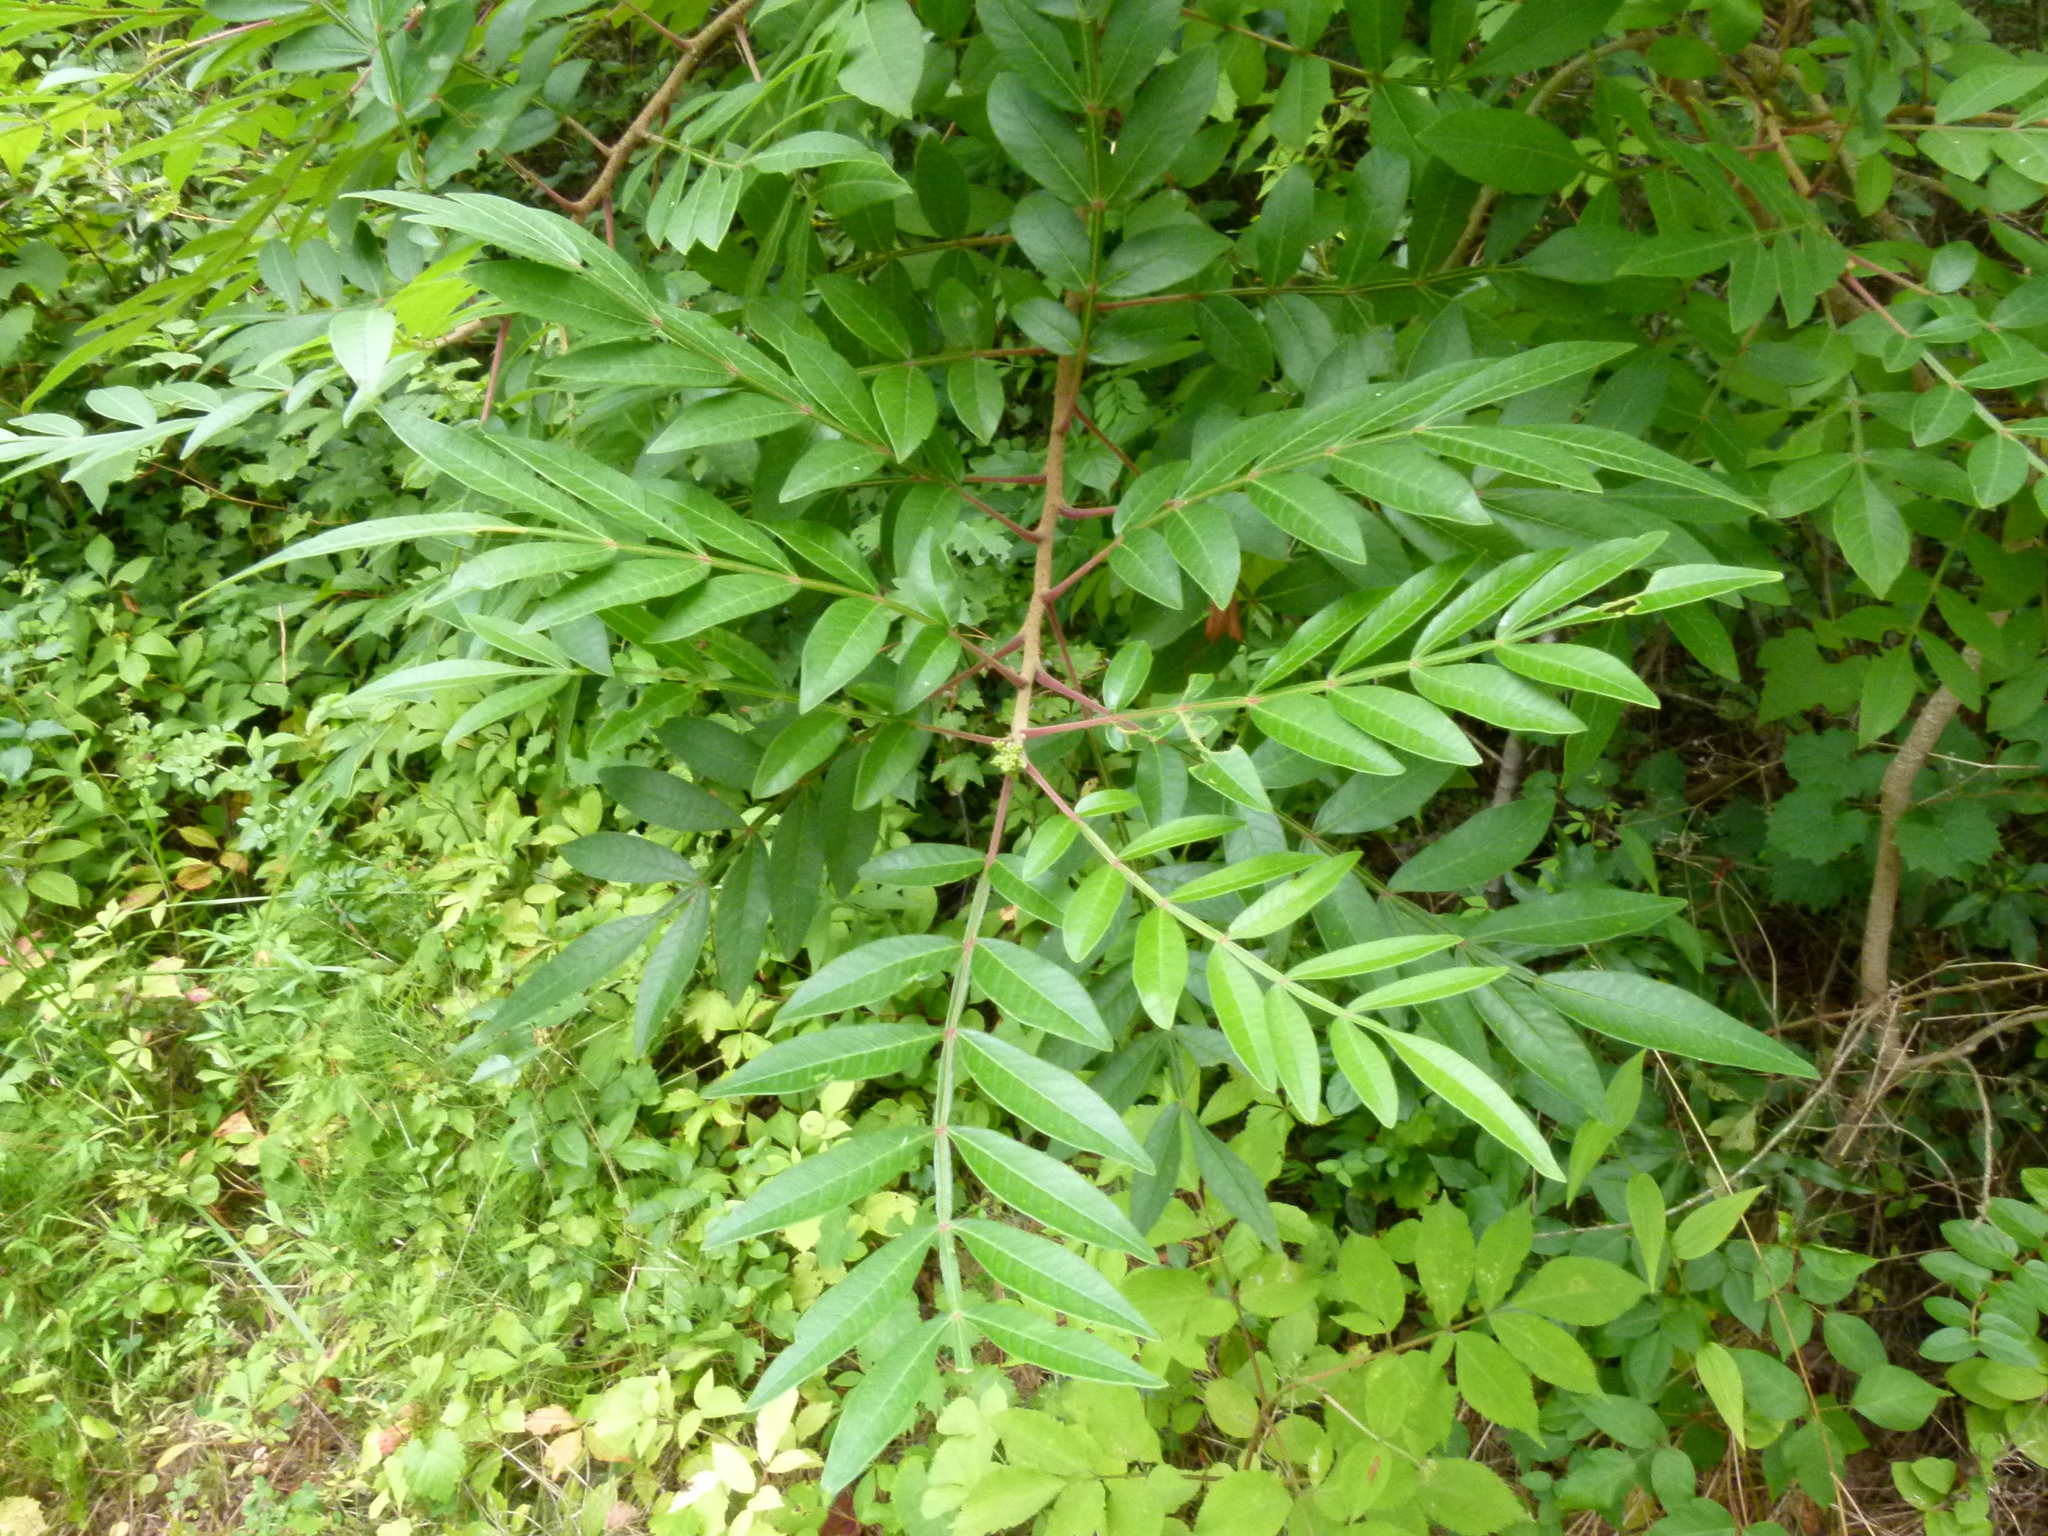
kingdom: Plantae
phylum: Tracheophyta
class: Magnoliopsida
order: Sapindales
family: Anacardiaceae
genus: Rhus
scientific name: Rhus copallina
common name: Shining sumac
